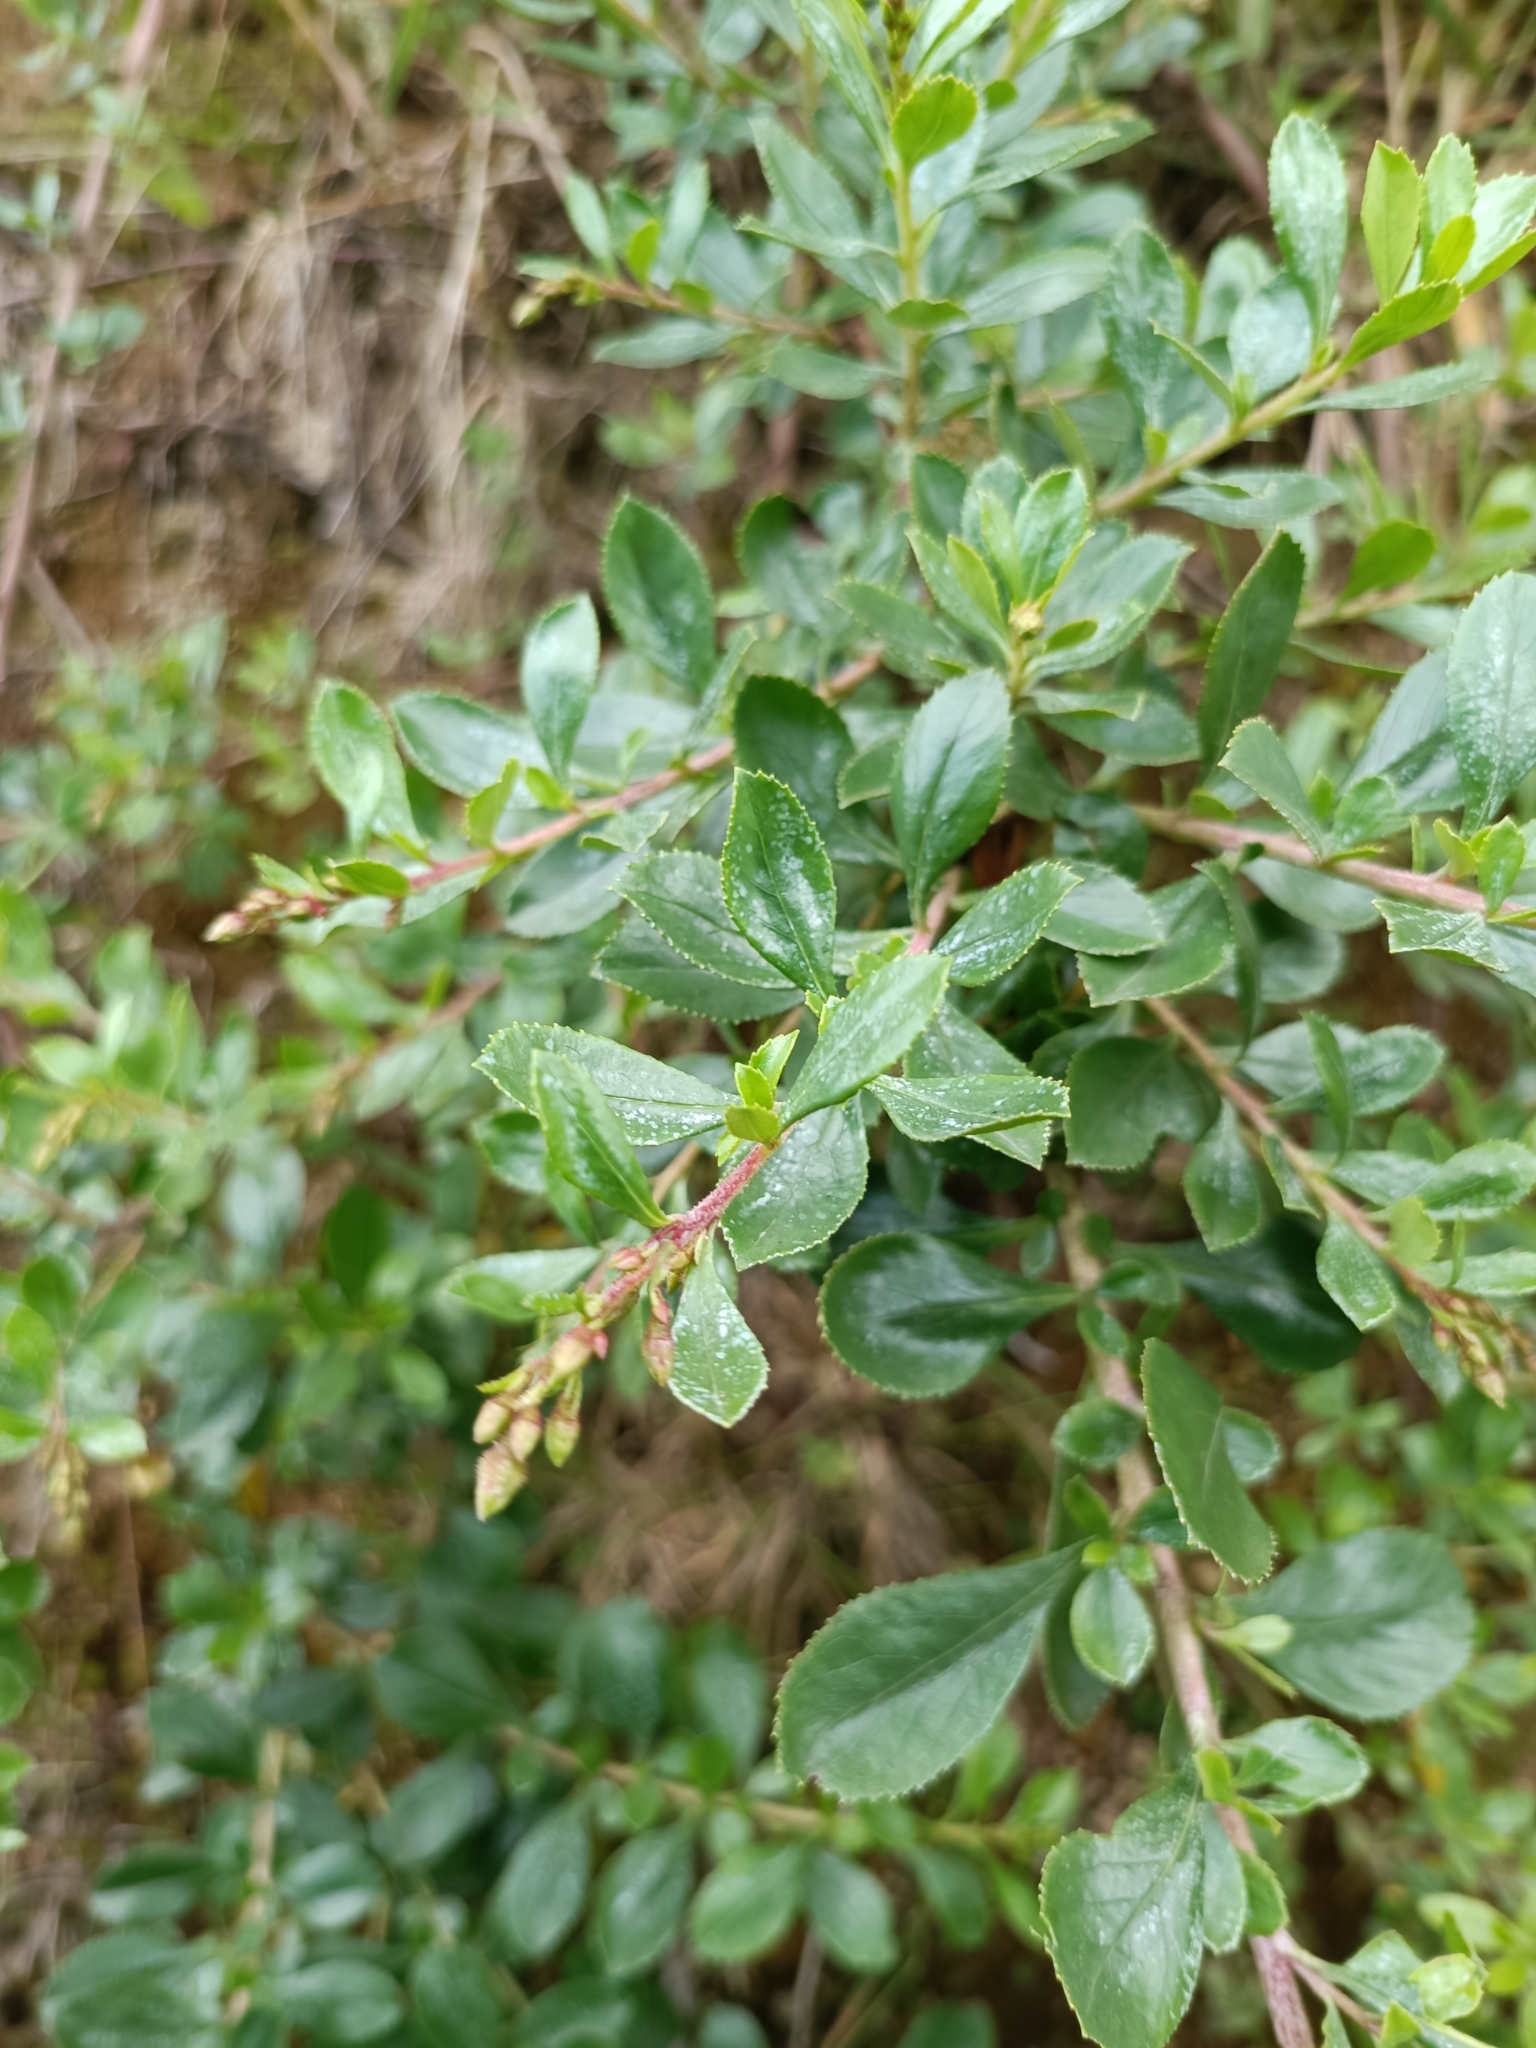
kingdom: Plantae
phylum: Tracheophyta
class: Magnoliopsida
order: Escalloniales
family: Escalloniaceae
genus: Escallonia
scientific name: Escallonia rubra
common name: Redclaws
